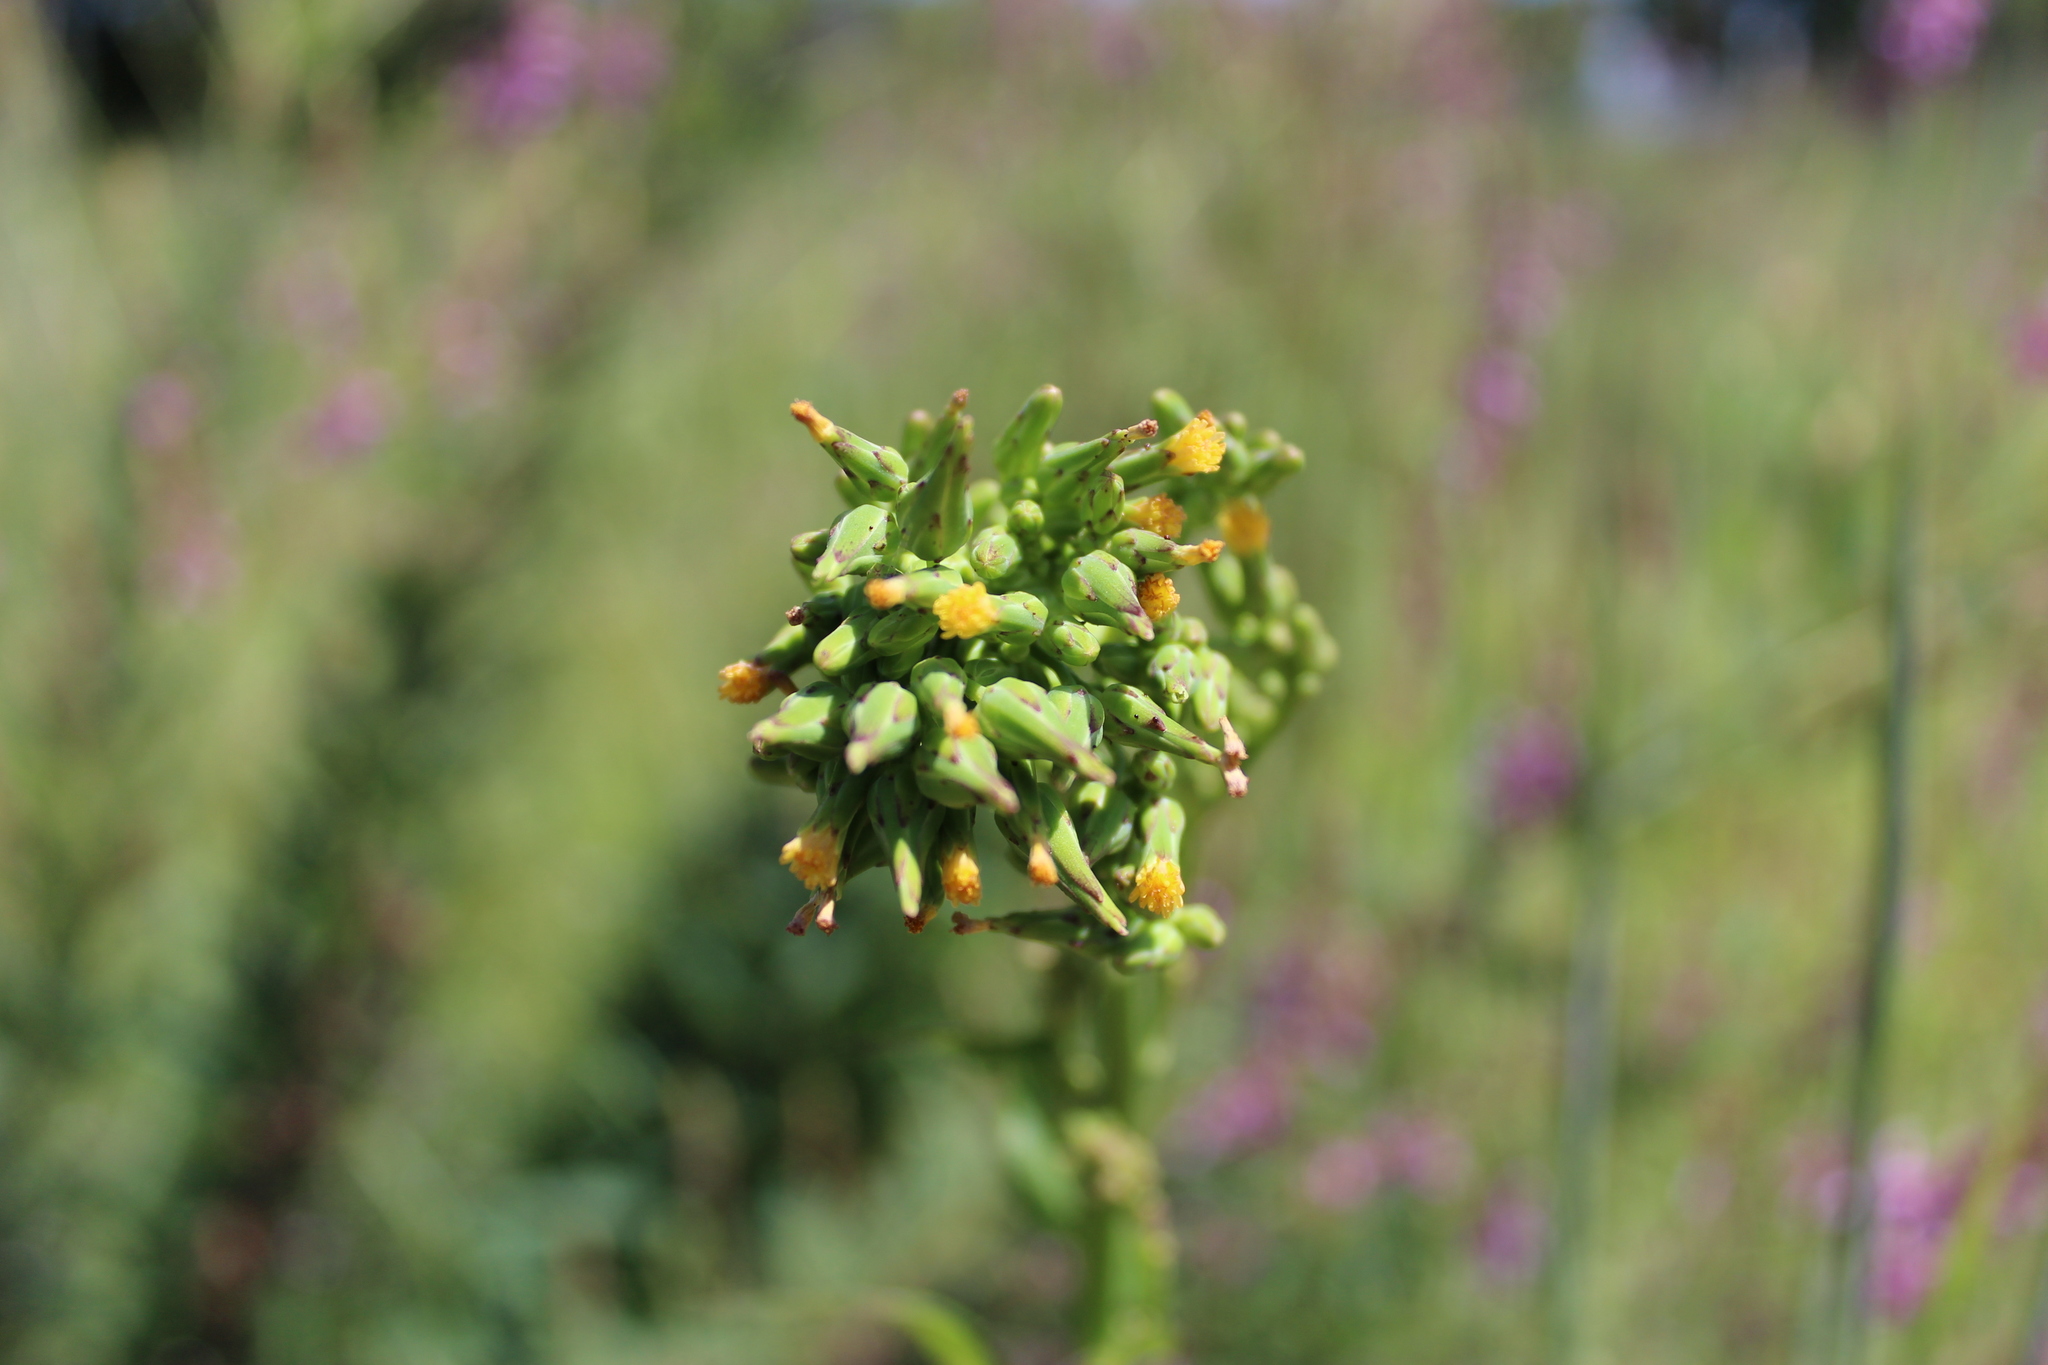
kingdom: Plantae
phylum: Tracheophyta
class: Magnoliopsida
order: Asterales
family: Asteraceae
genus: Lactuca
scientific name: Lactuca canadensis
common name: Canada lettuce
